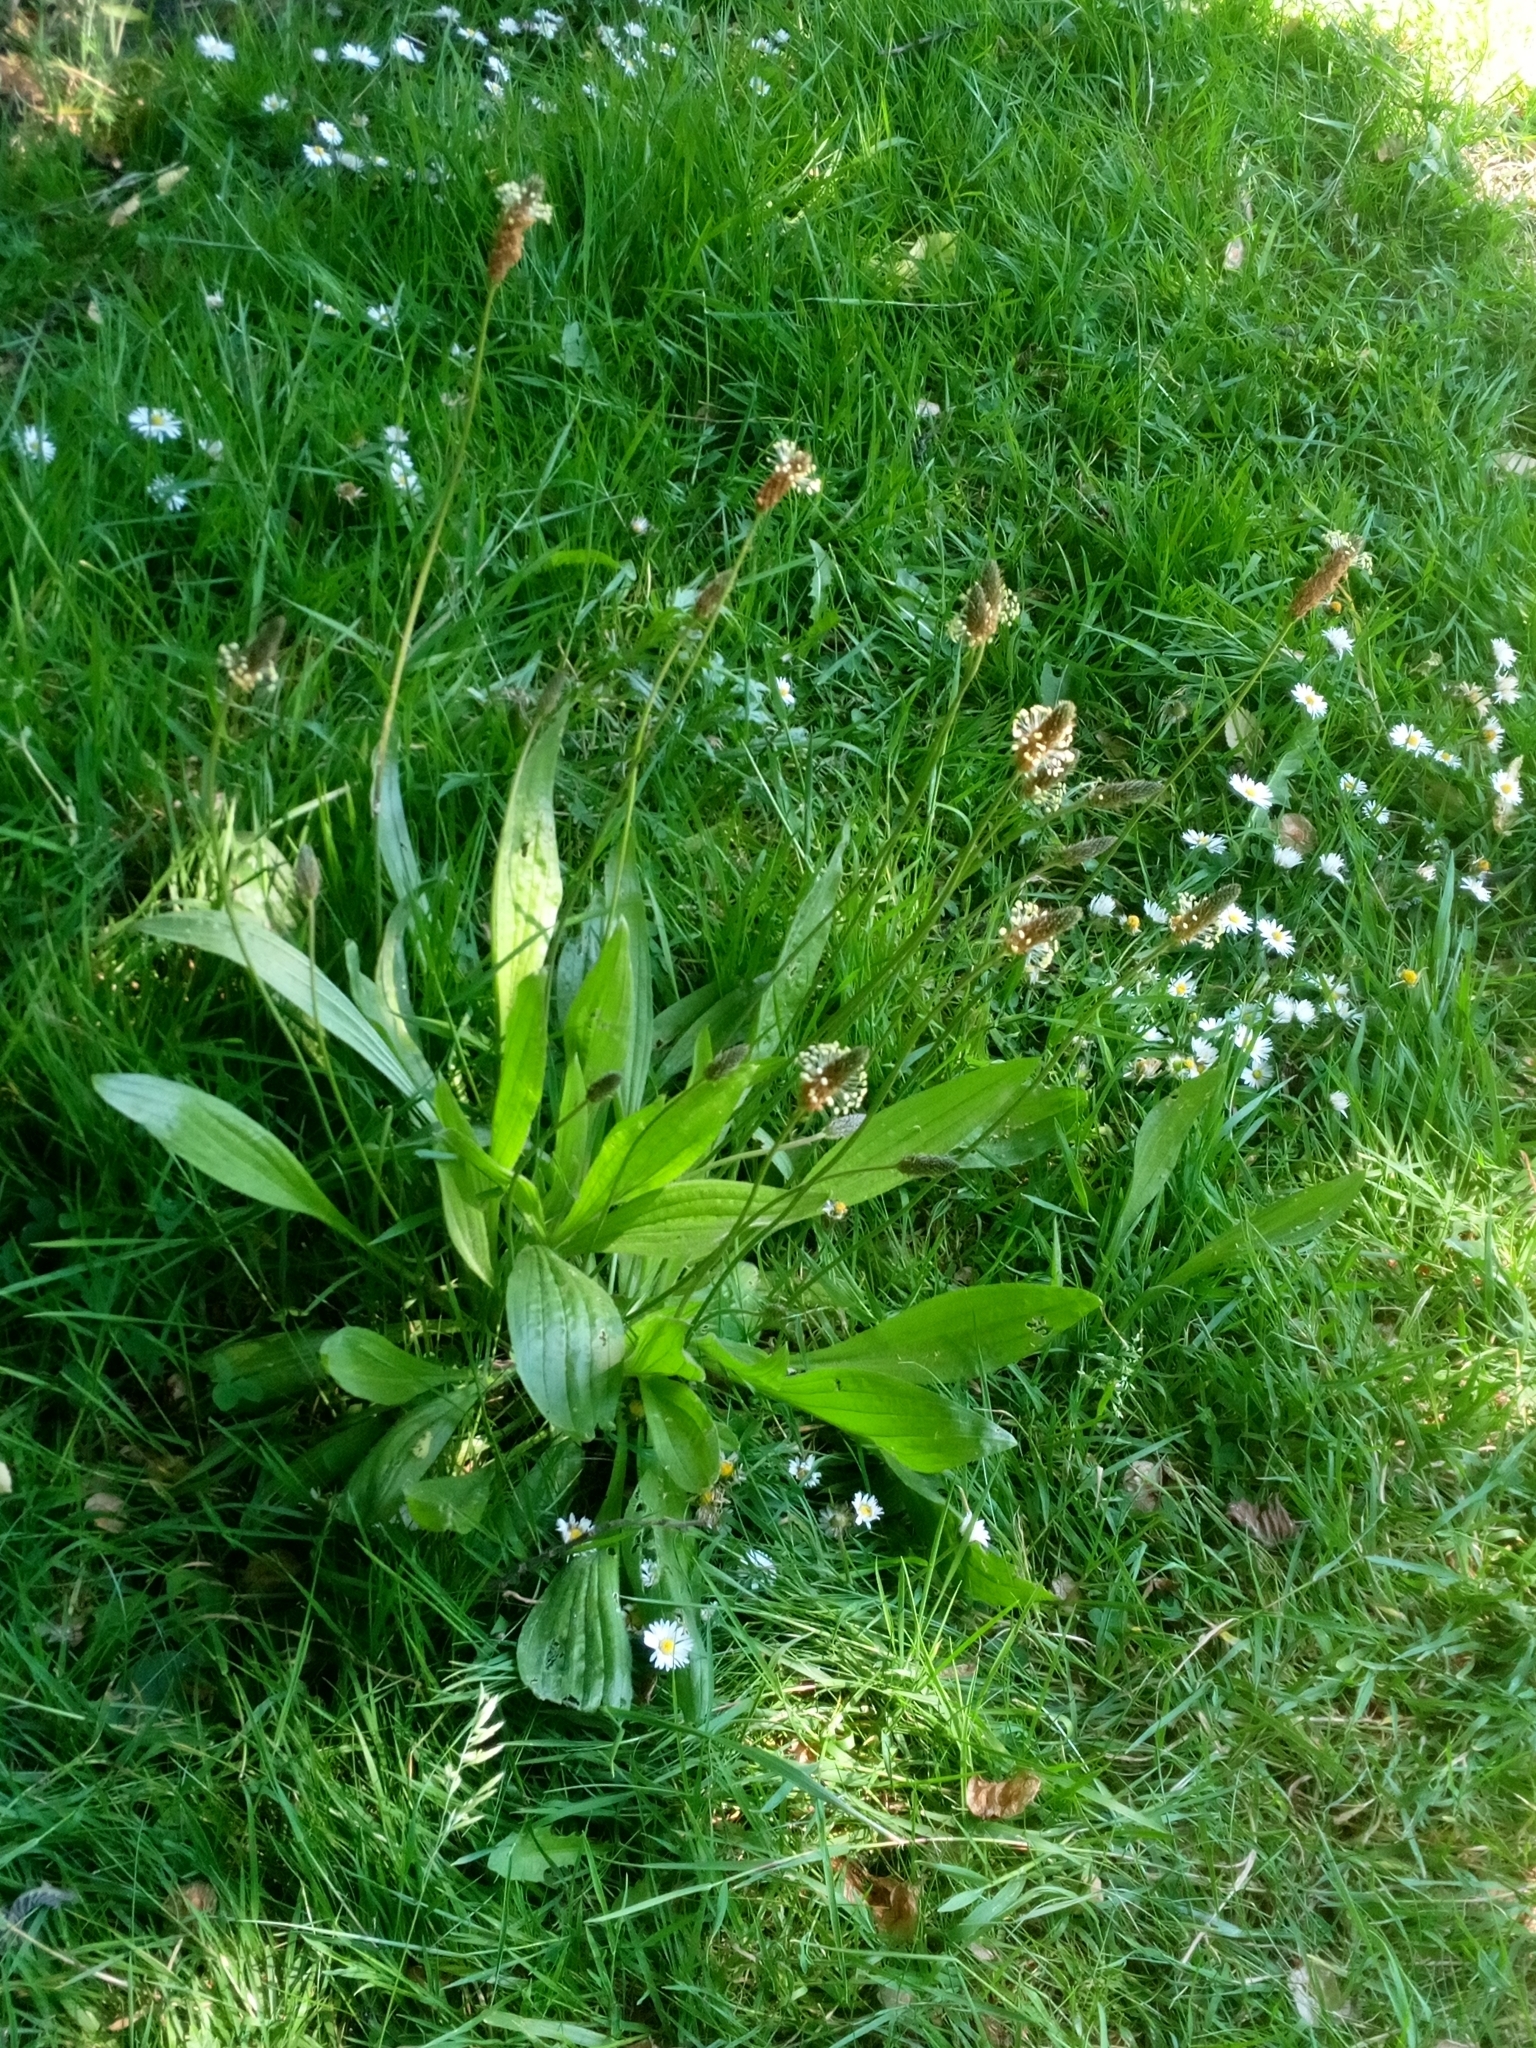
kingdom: Plantae
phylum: Tracheophyta
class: Magnoliopsida
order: Lamiales
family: Plantaginaceae
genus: Plantago
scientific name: Plantago lanceolata
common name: Ribwort plantain
